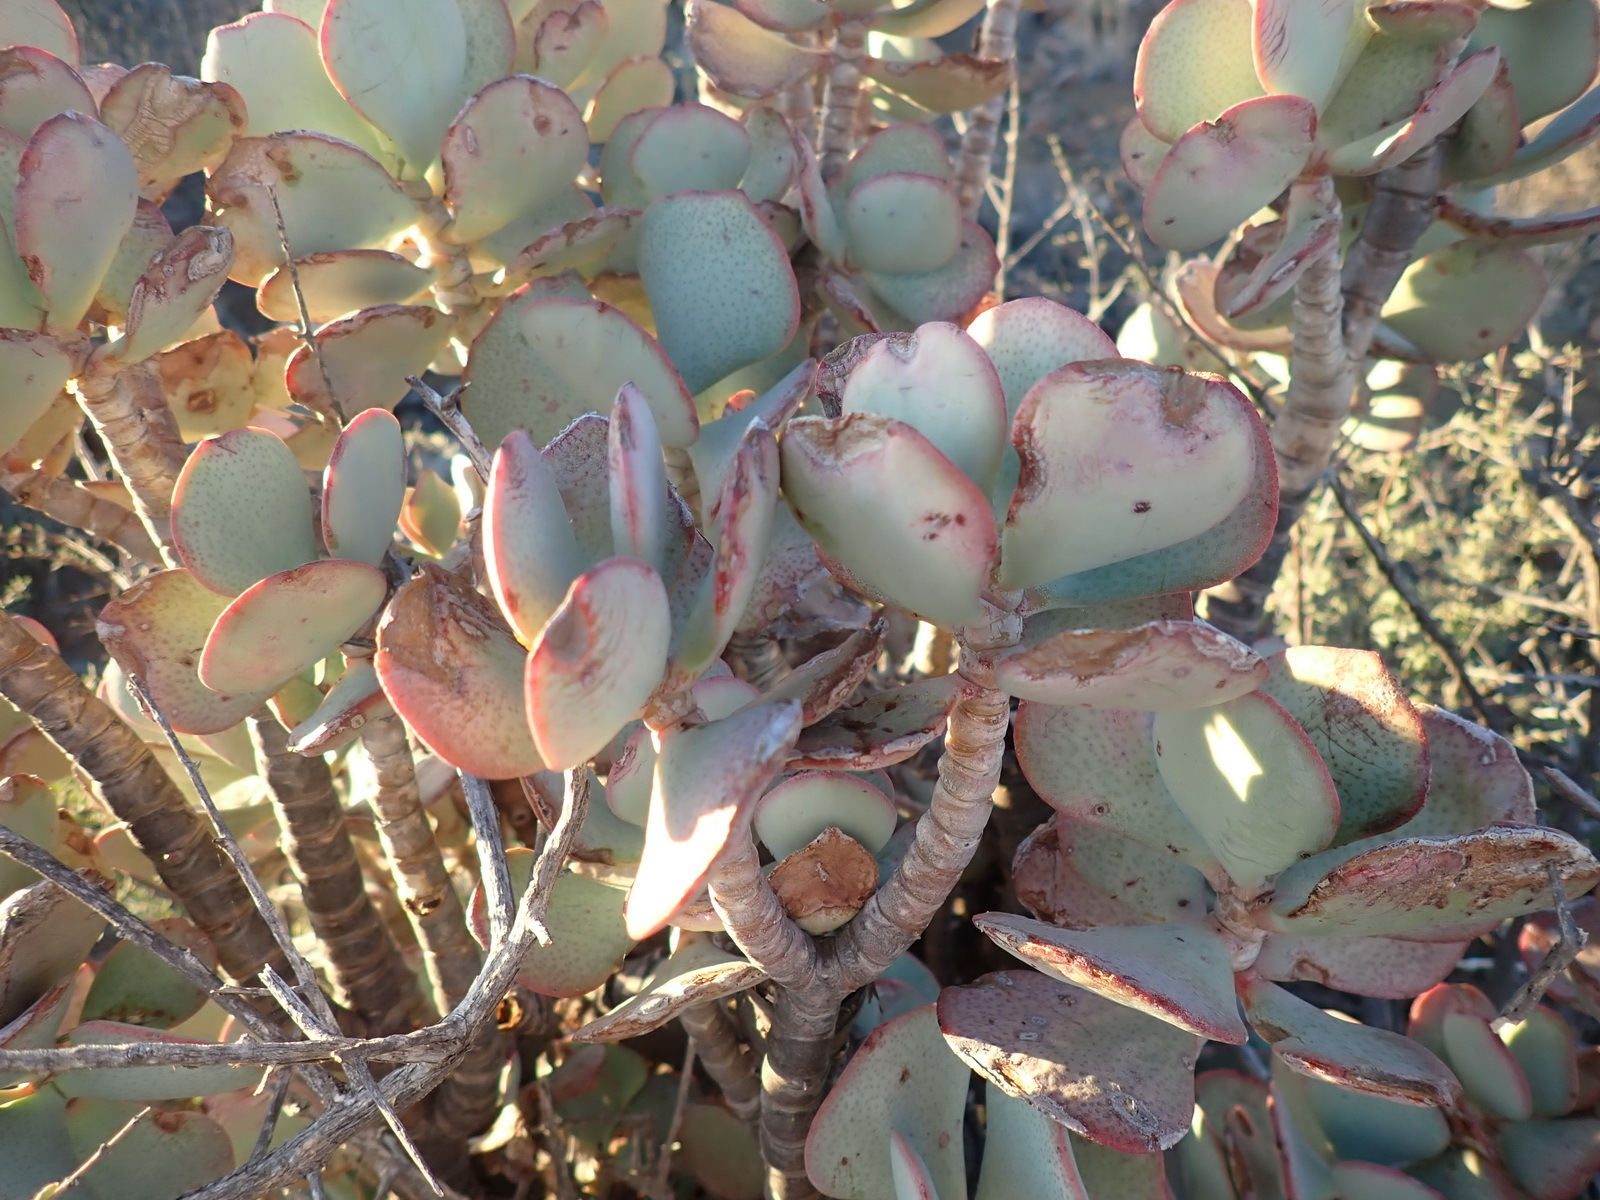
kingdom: Plantae
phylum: Tracheophyta
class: Magnoliopsida
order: Saxifragales
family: Crassulaceae
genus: Crassula
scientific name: Crassula arborescens
